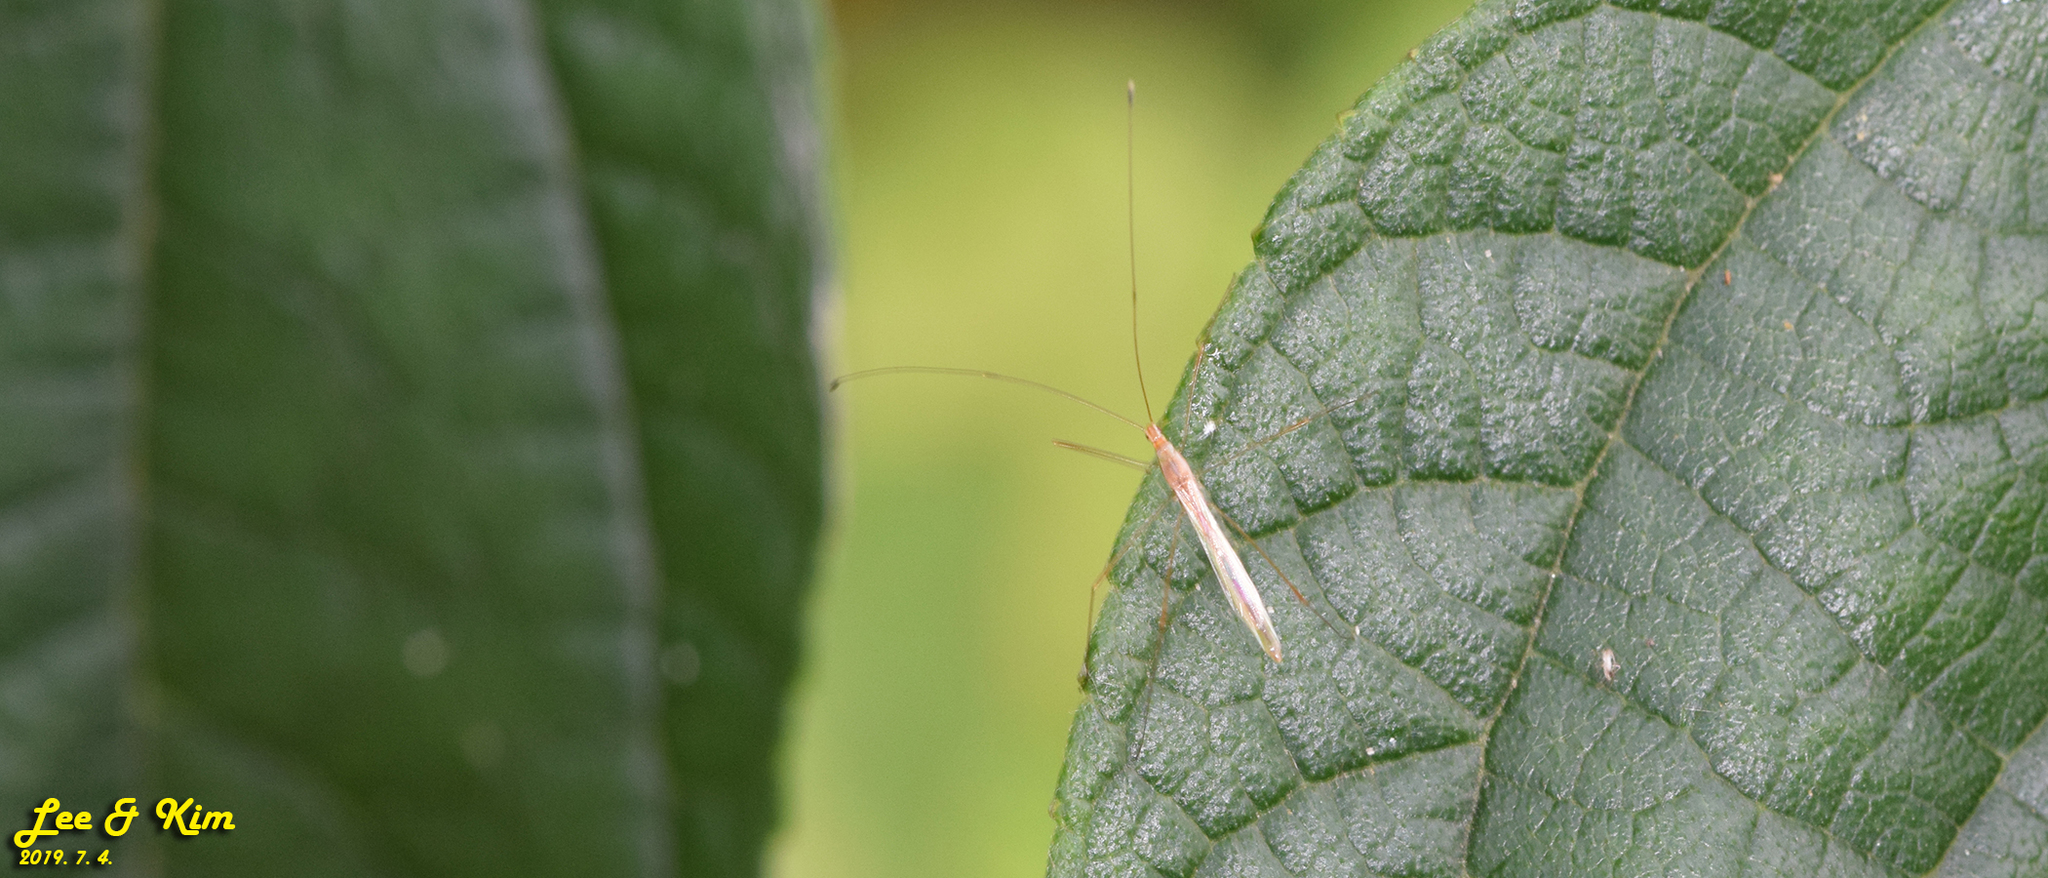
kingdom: Animalia
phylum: Arthropoda
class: Insecta
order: Hemiptera
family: Berytidae
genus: Yemma
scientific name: Yemma exilis
